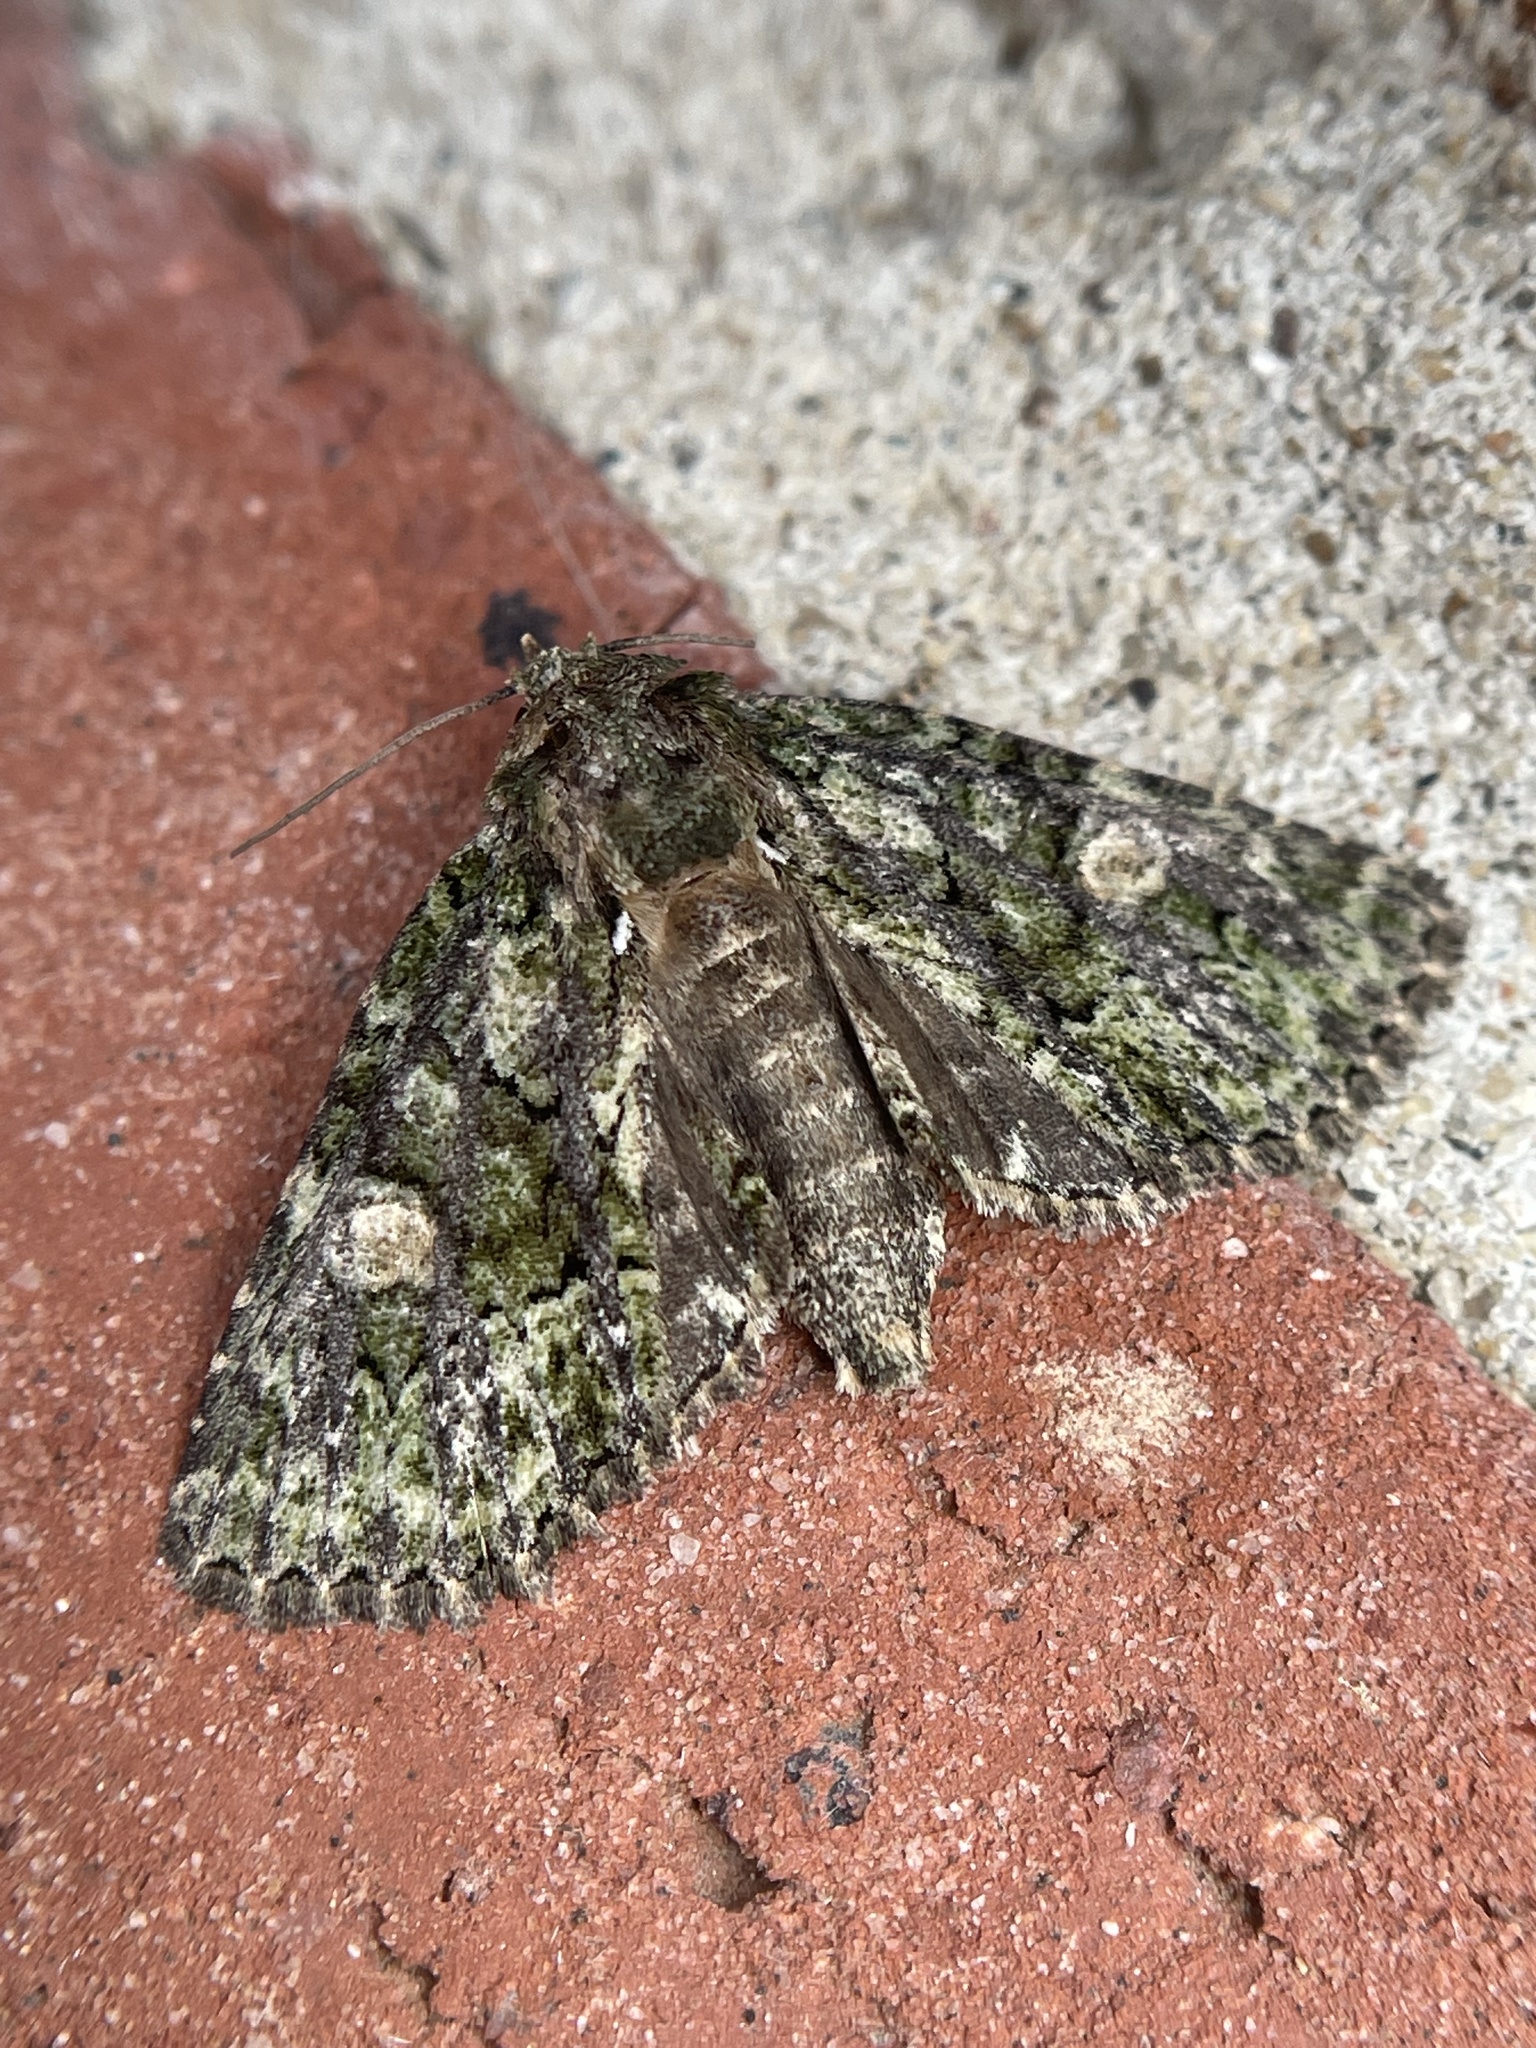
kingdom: Animalia
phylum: Arthropoda
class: Insecta
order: Lepidoptera
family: Noctuidae
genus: Phosphila
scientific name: Phosphila miselioides
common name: Spotted phosphila moth
